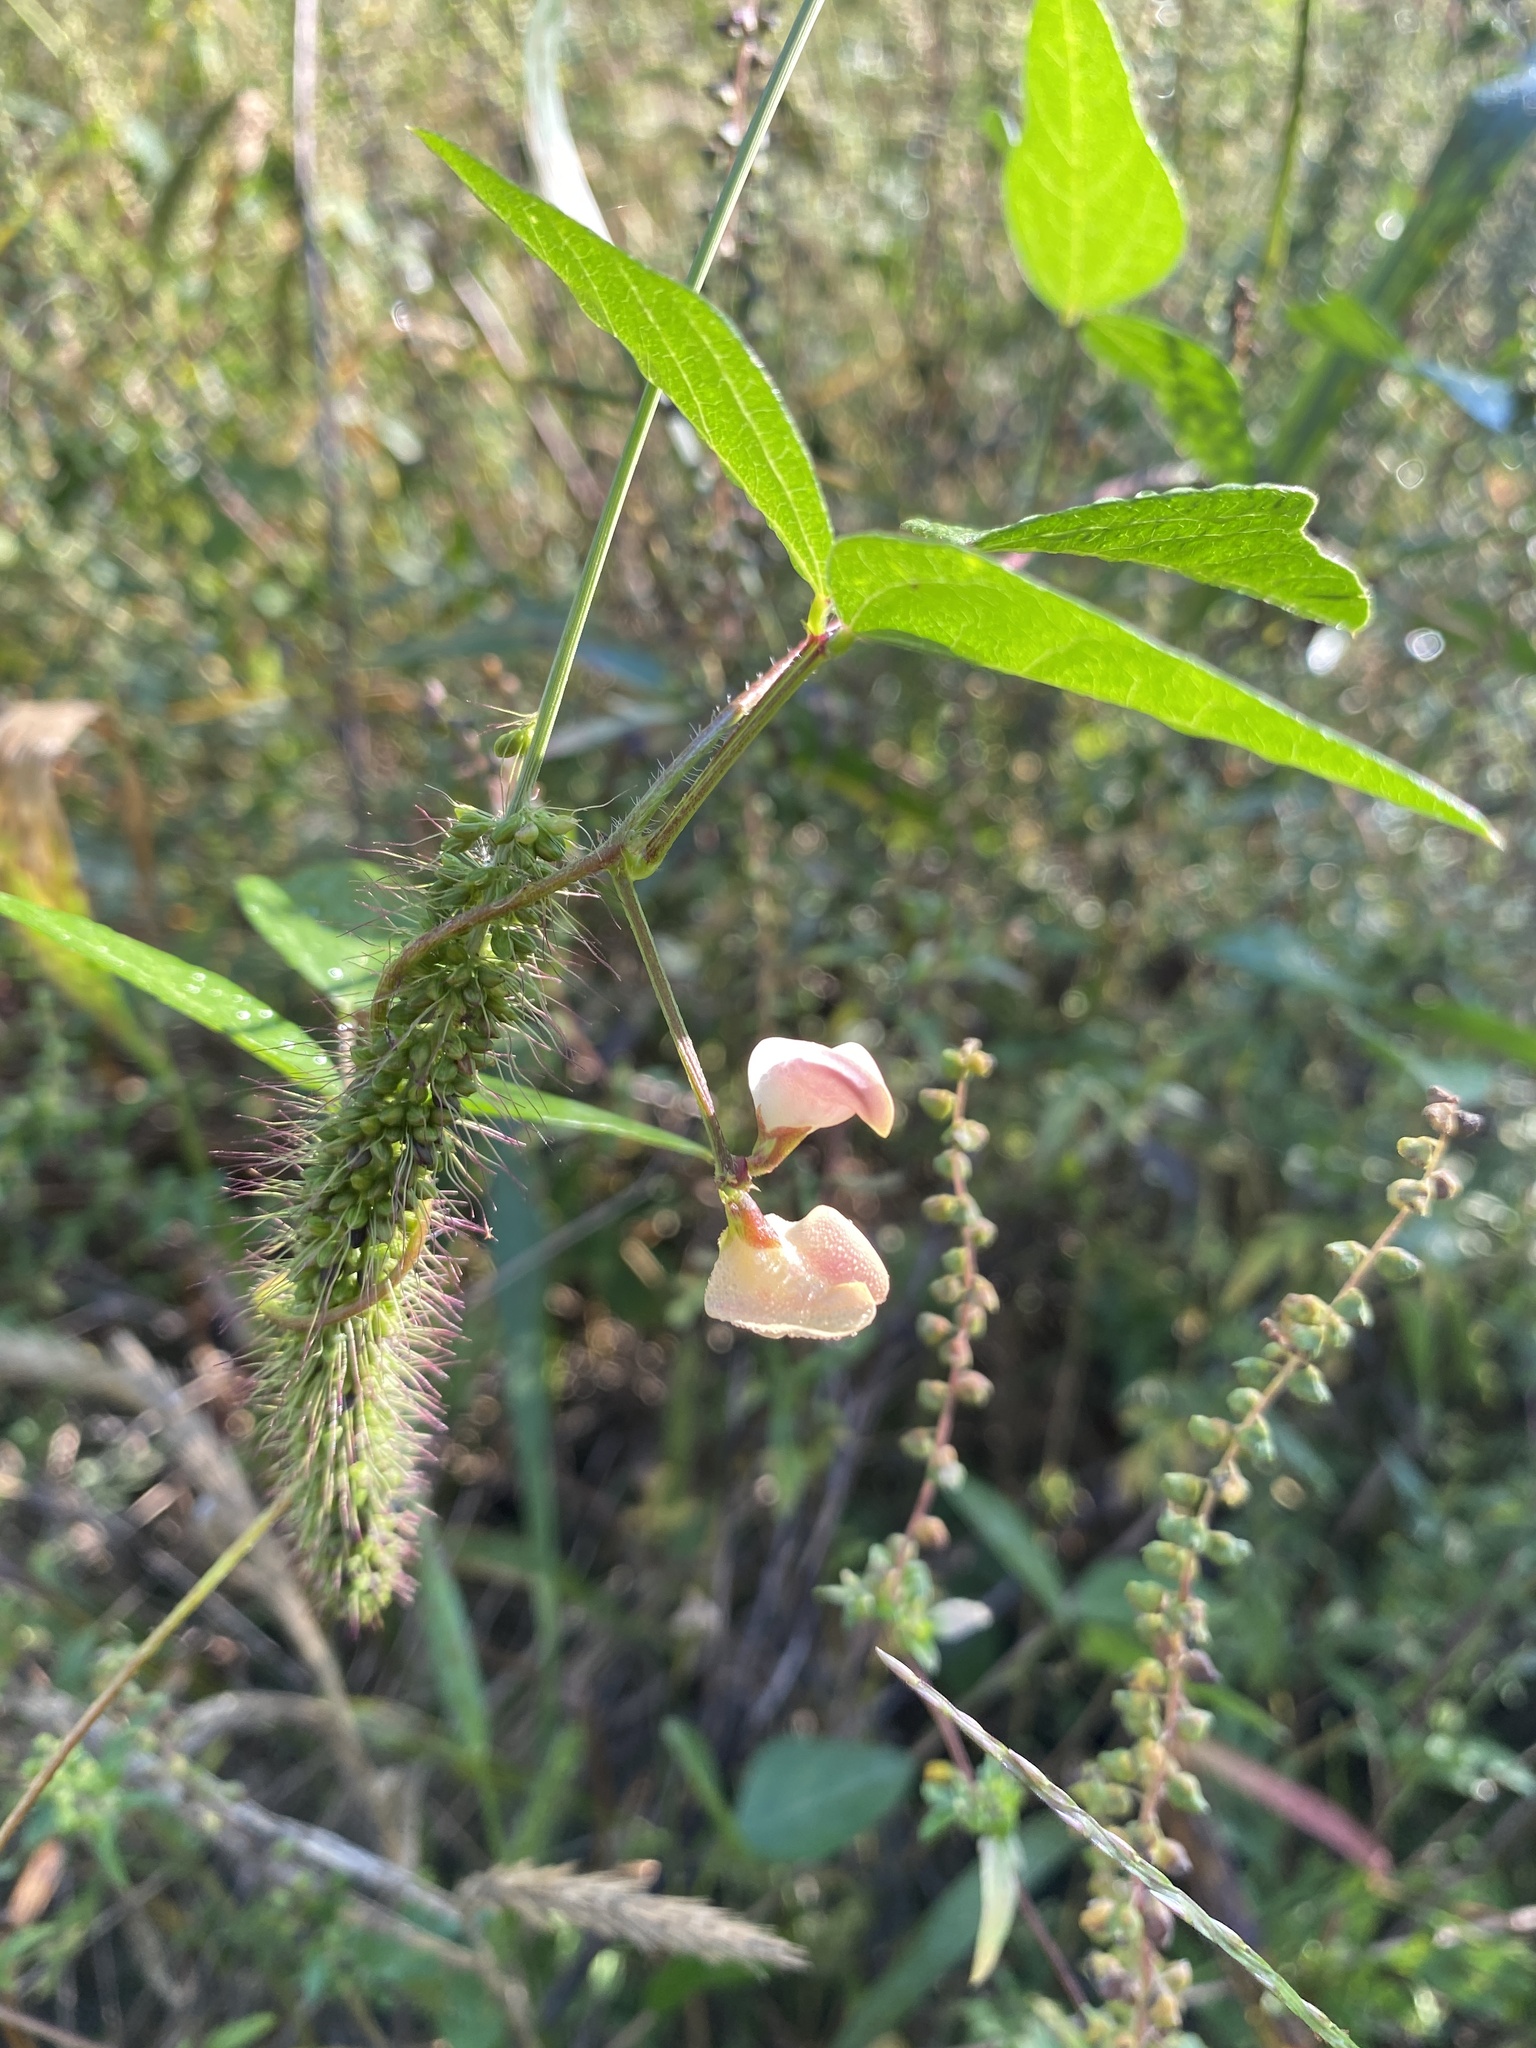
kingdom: Plantae
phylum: Tracheophyta
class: Magnoliopsida
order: Fabales
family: Fabaceae
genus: Strophostyles
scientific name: Strophostyles helvola
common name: Trailing wild bean
